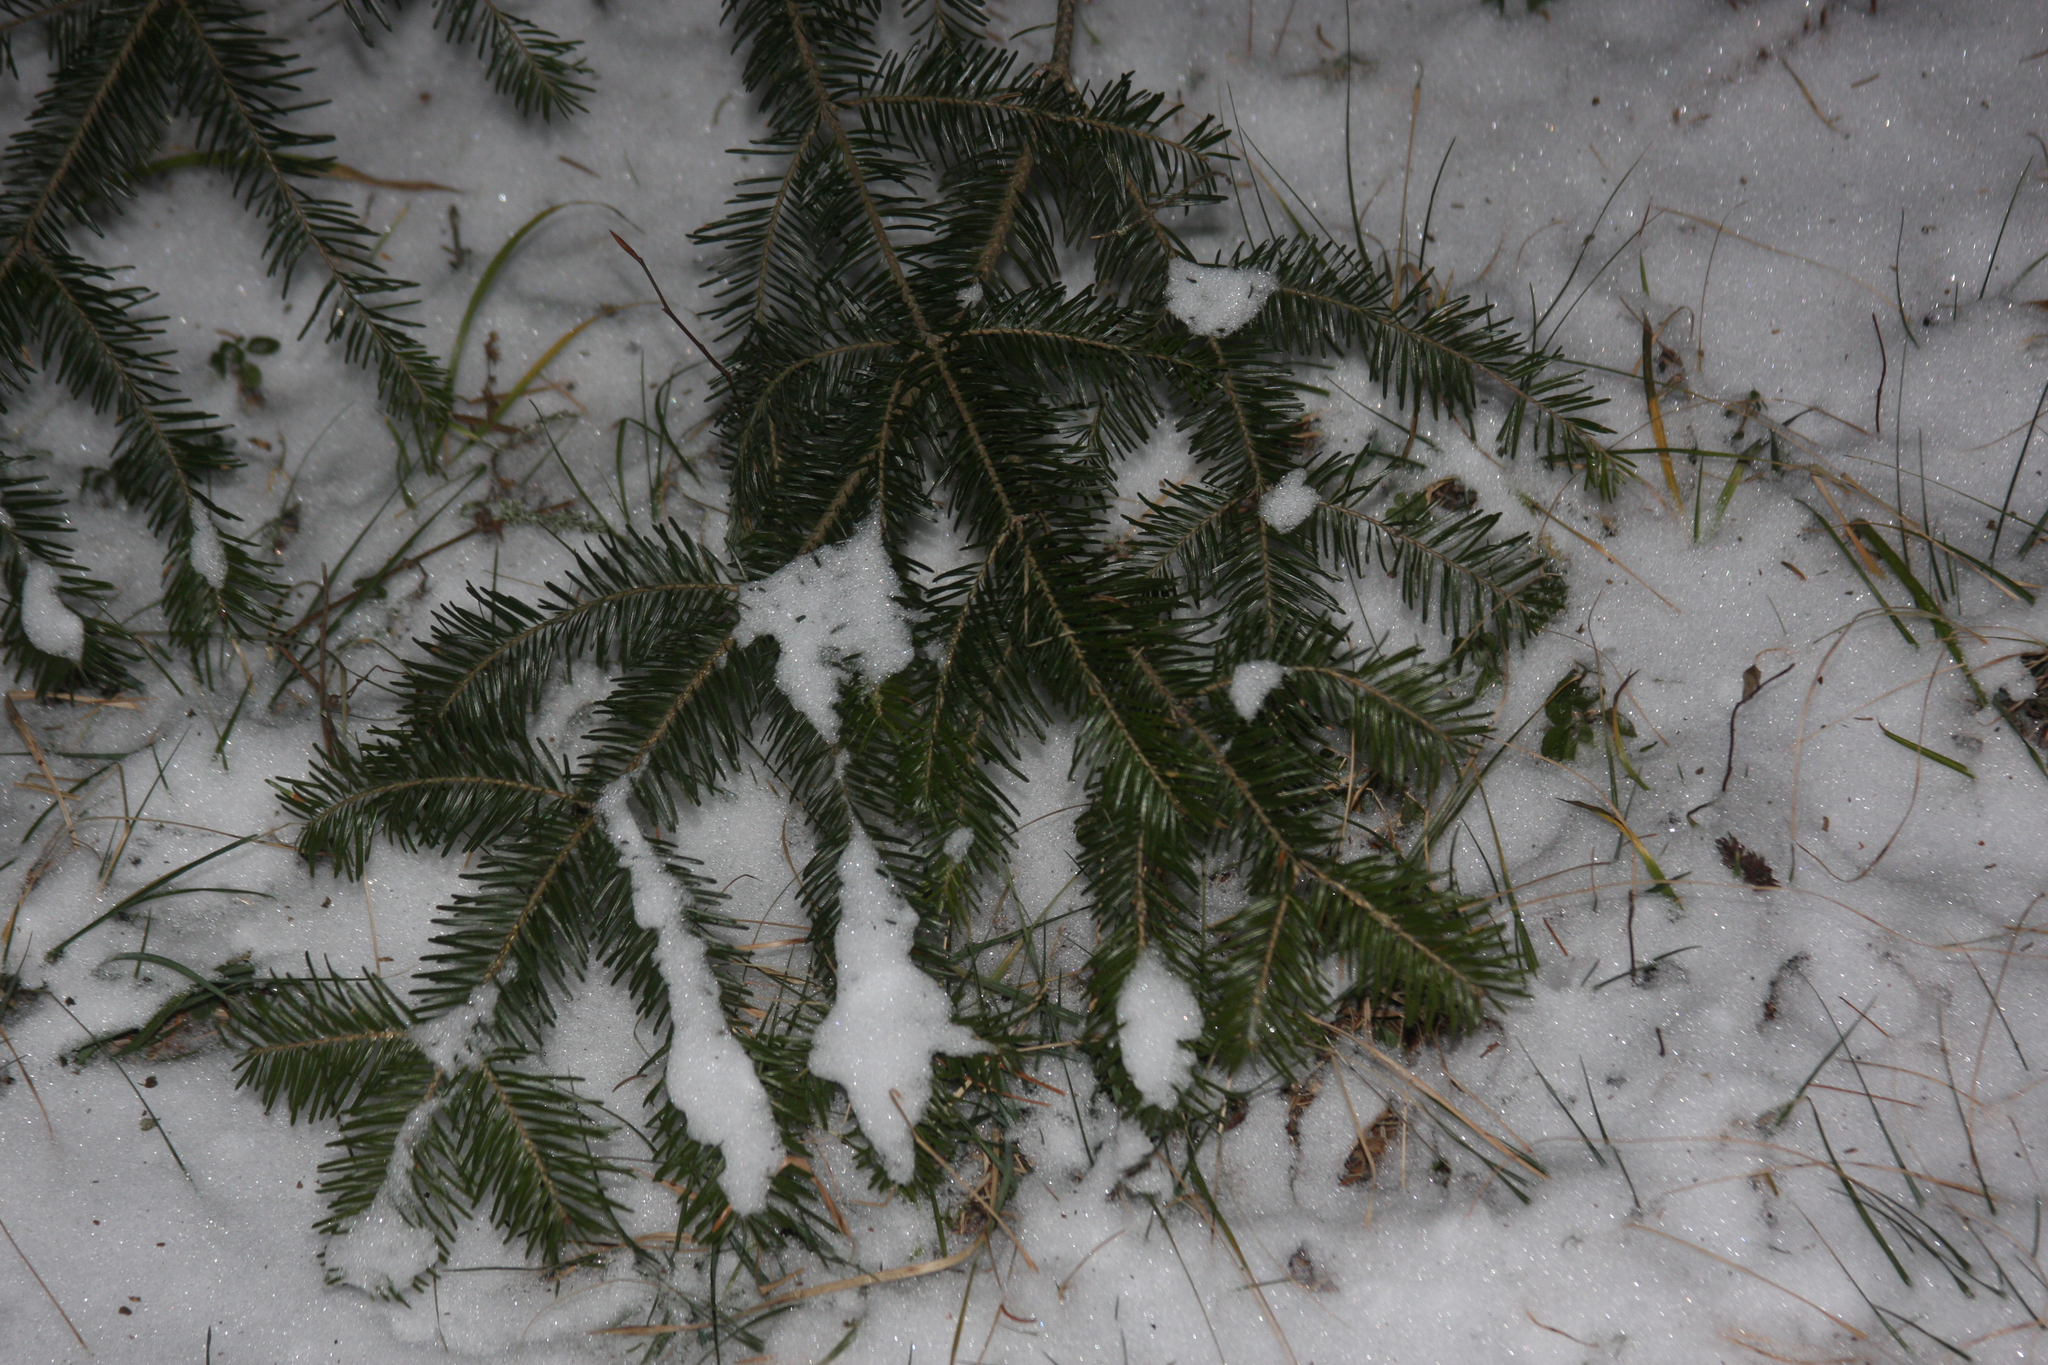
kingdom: Plantae
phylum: Tracheophyta
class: Pinopsida
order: Pinales
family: Pinaceae
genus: Abies
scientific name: Abies balsamea
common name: Balsam fir
